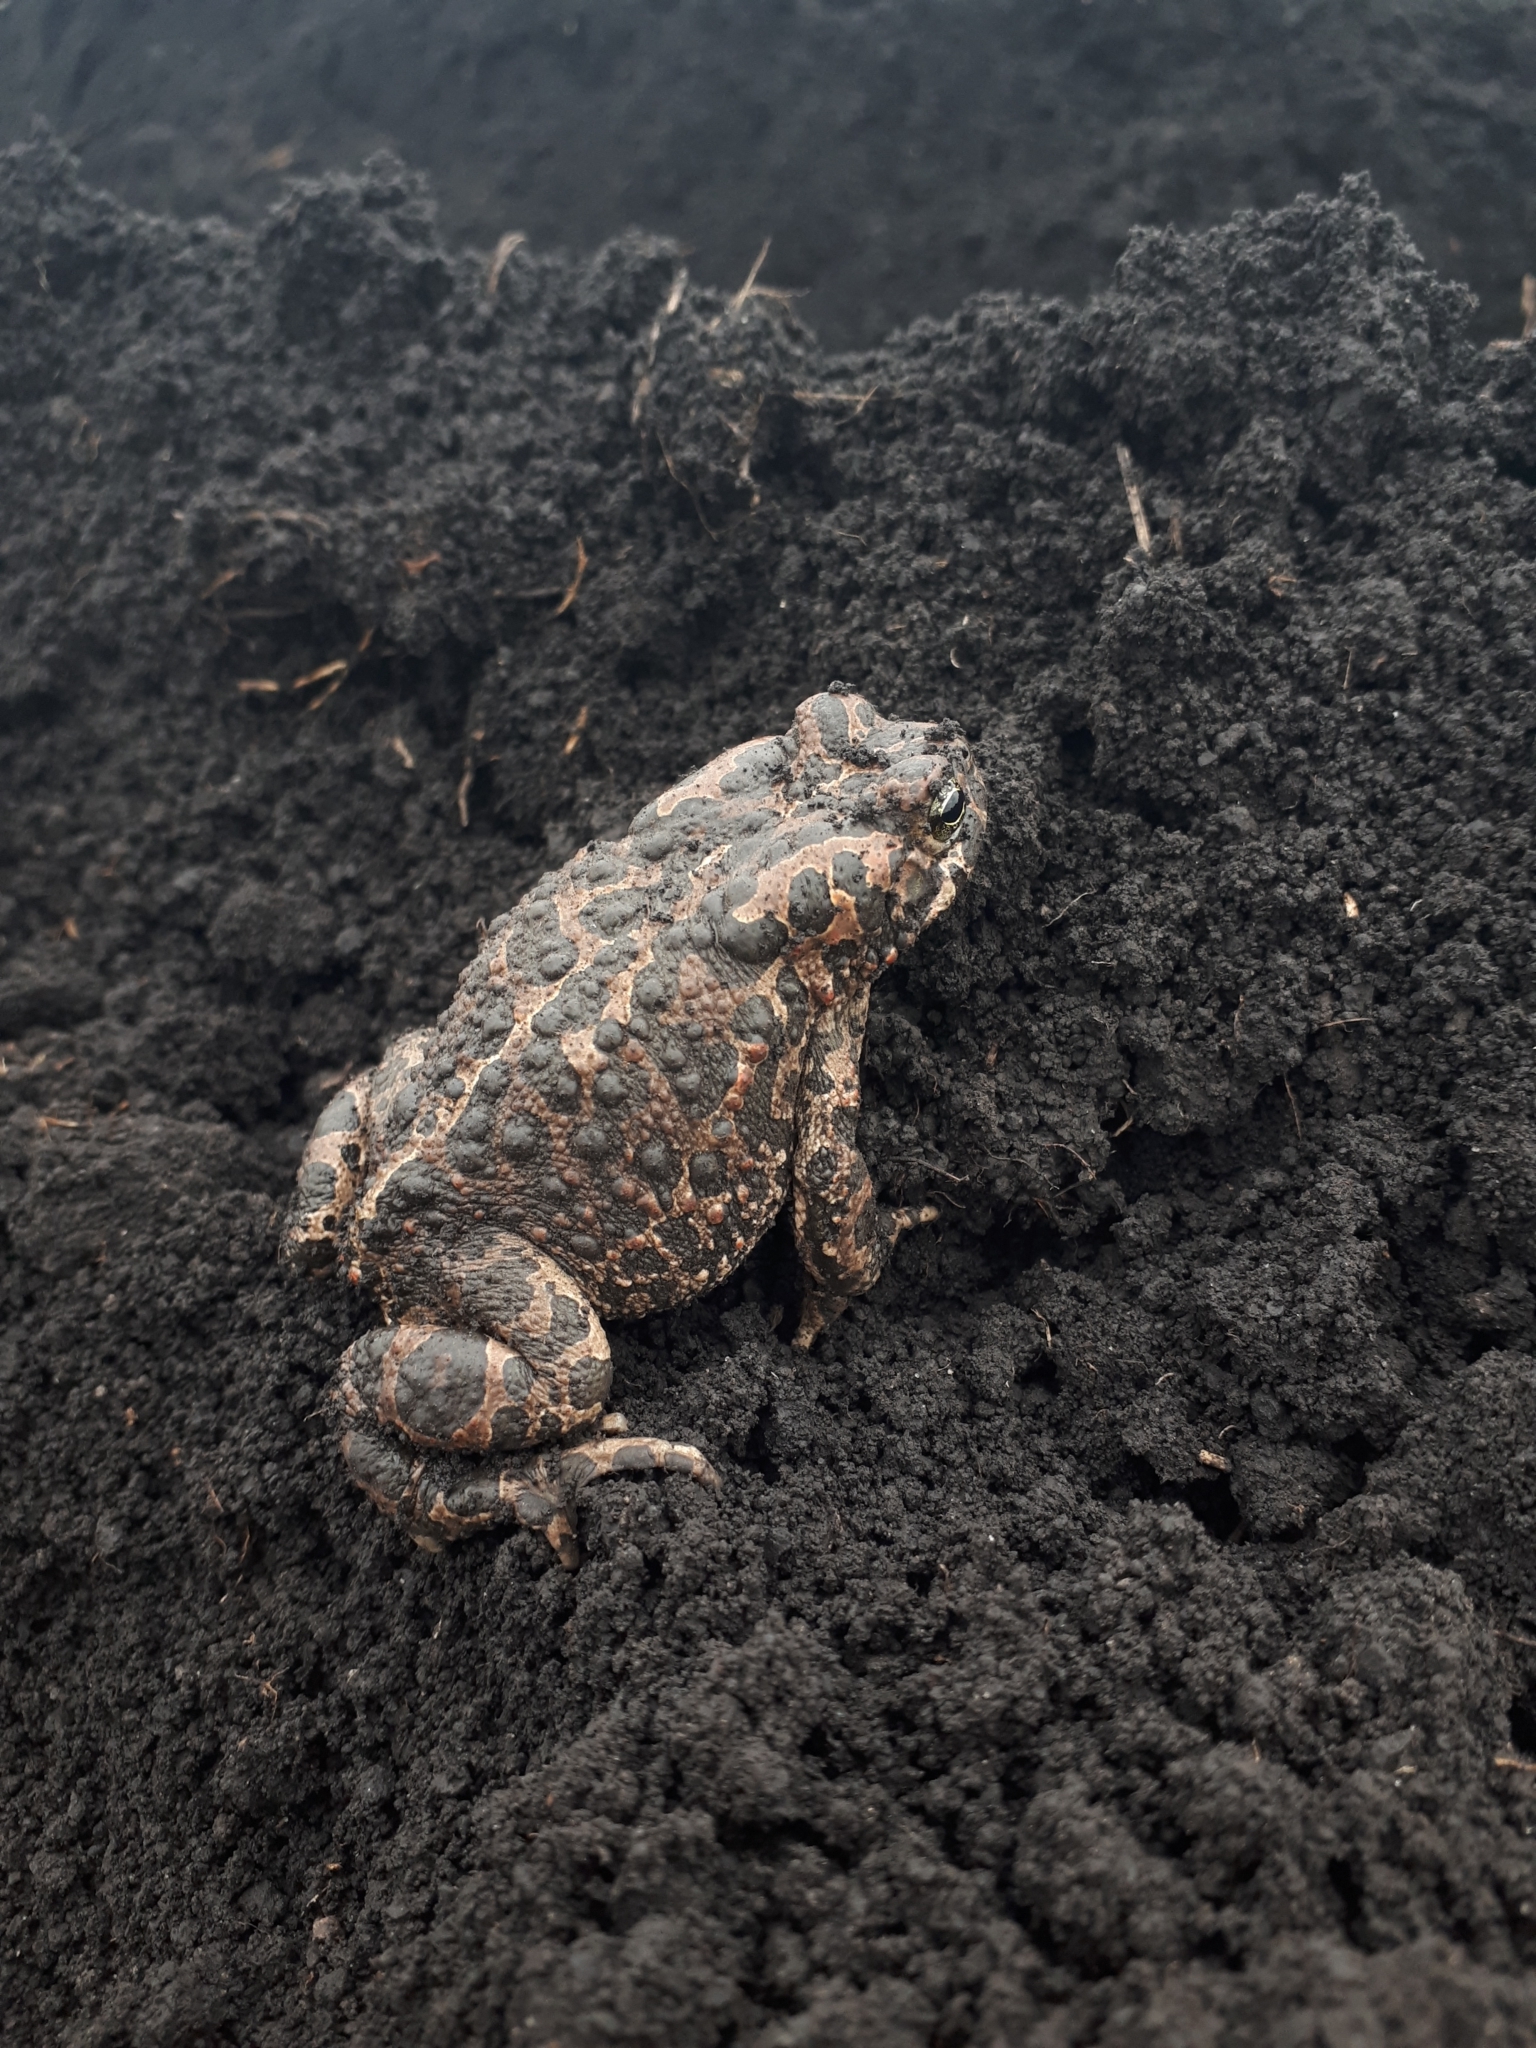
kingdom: Animalia
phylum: Chordata
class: Amphibia
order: Anura
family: Bufonidae
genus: Bufotes
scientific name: Bufotes viridis
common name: European green toad
